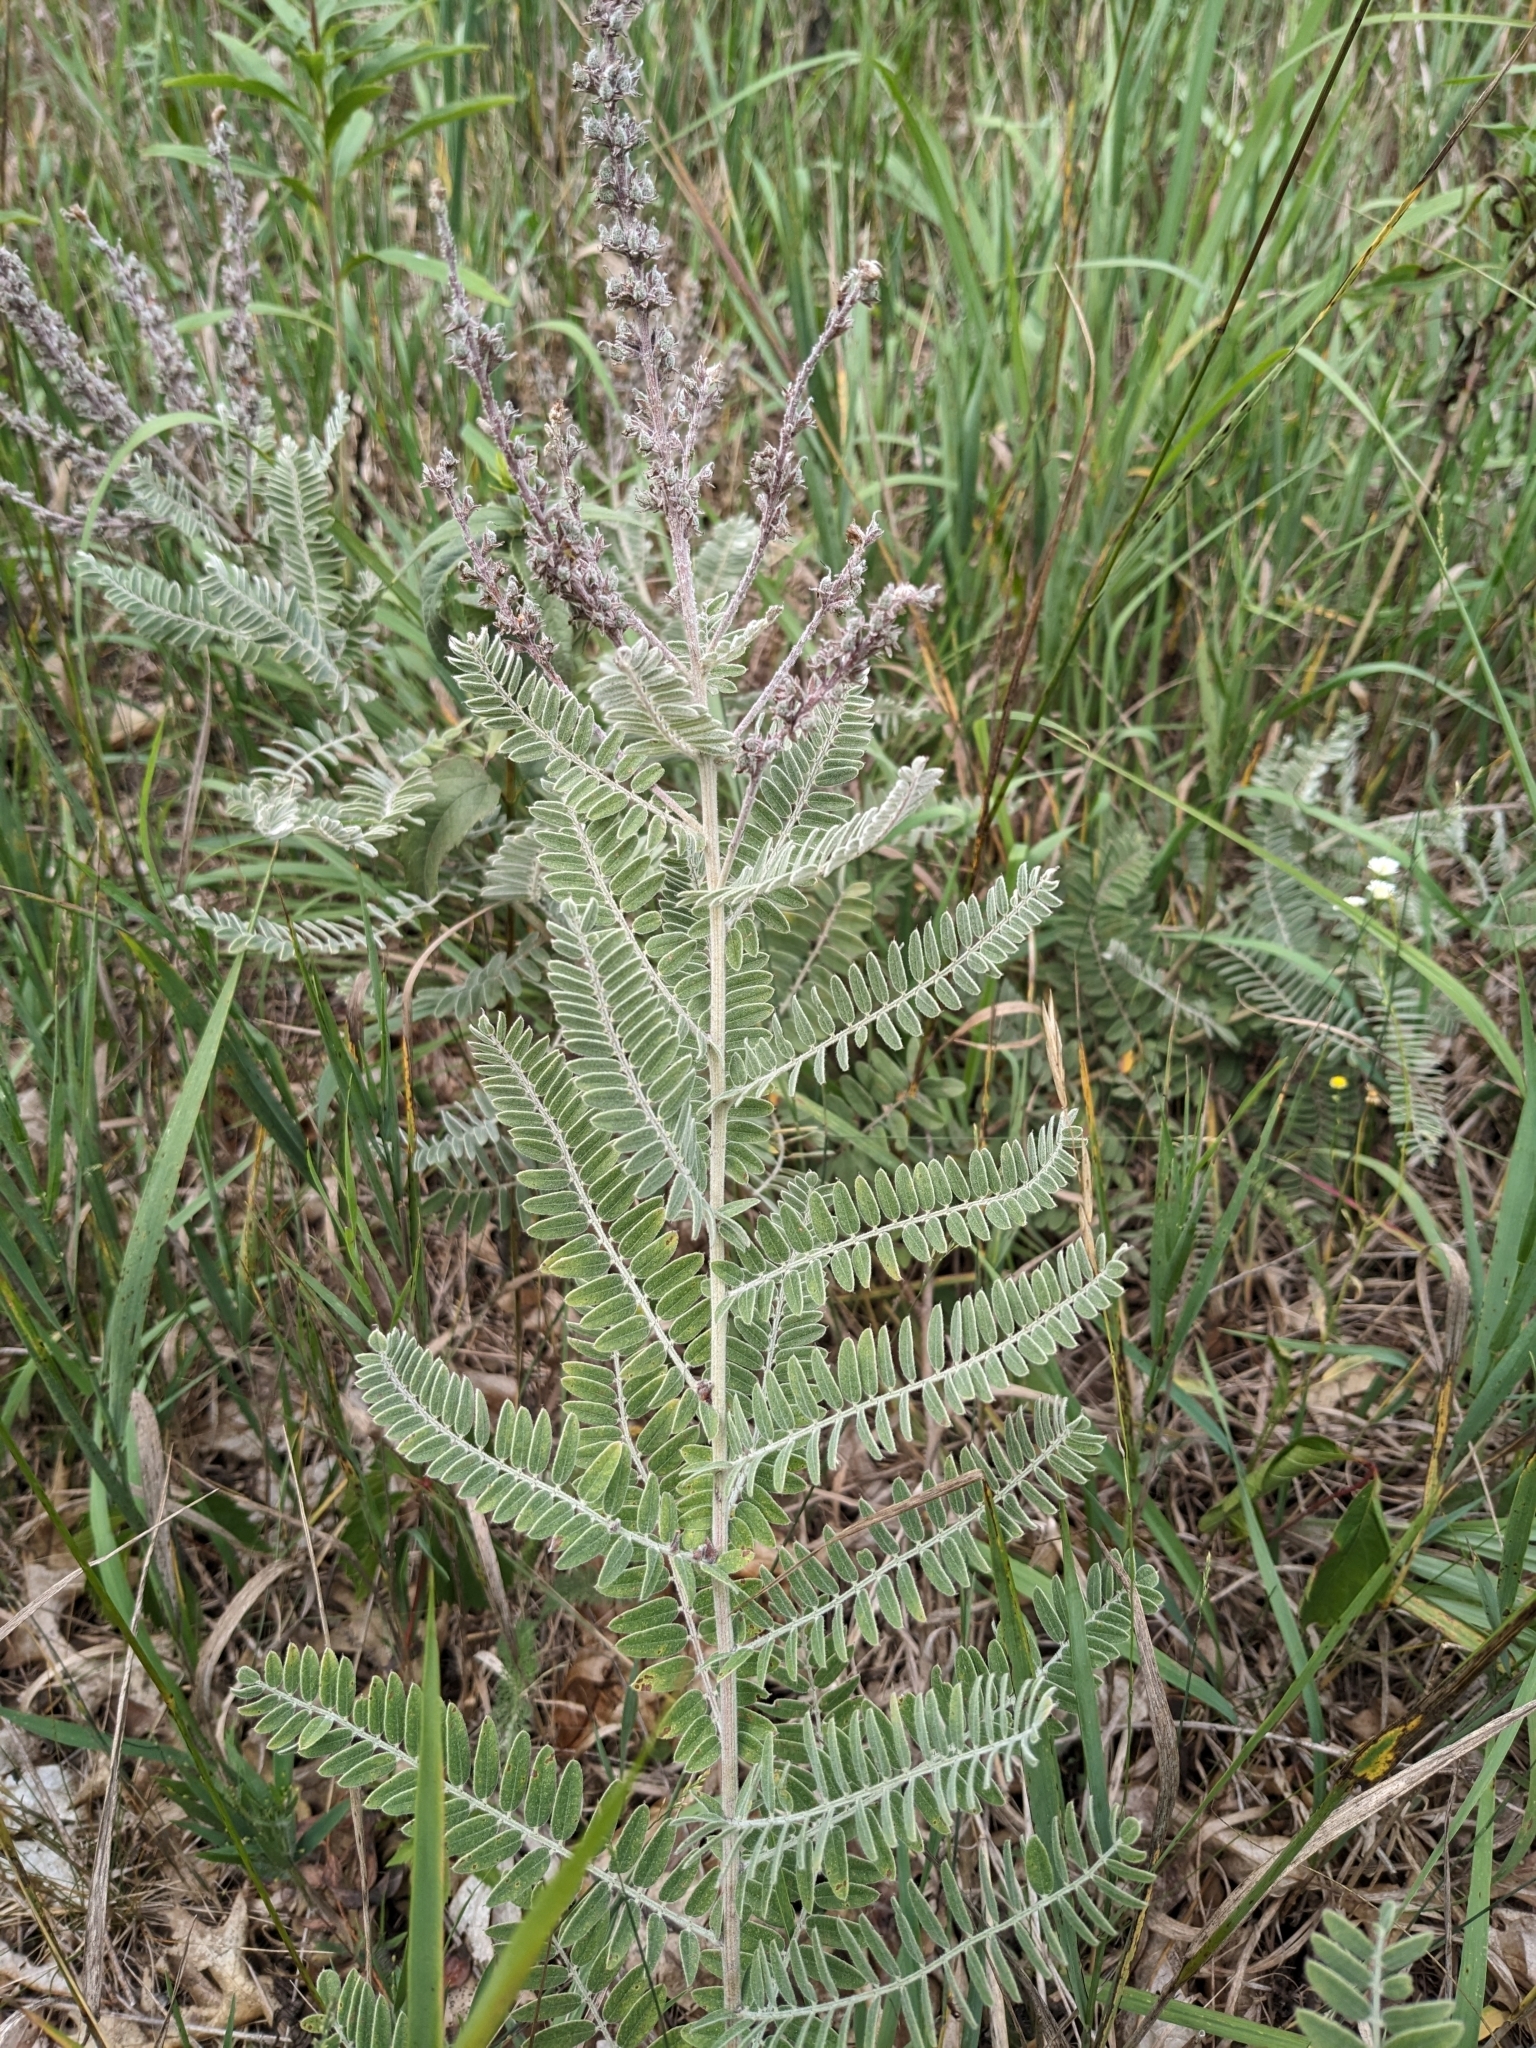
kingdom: Plantae
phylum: Tracheophyta
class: Magnoliopsida
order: Fabales
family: Fabaceae
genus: Amorpha
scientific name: Amorpha canescens
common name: Leadplant
